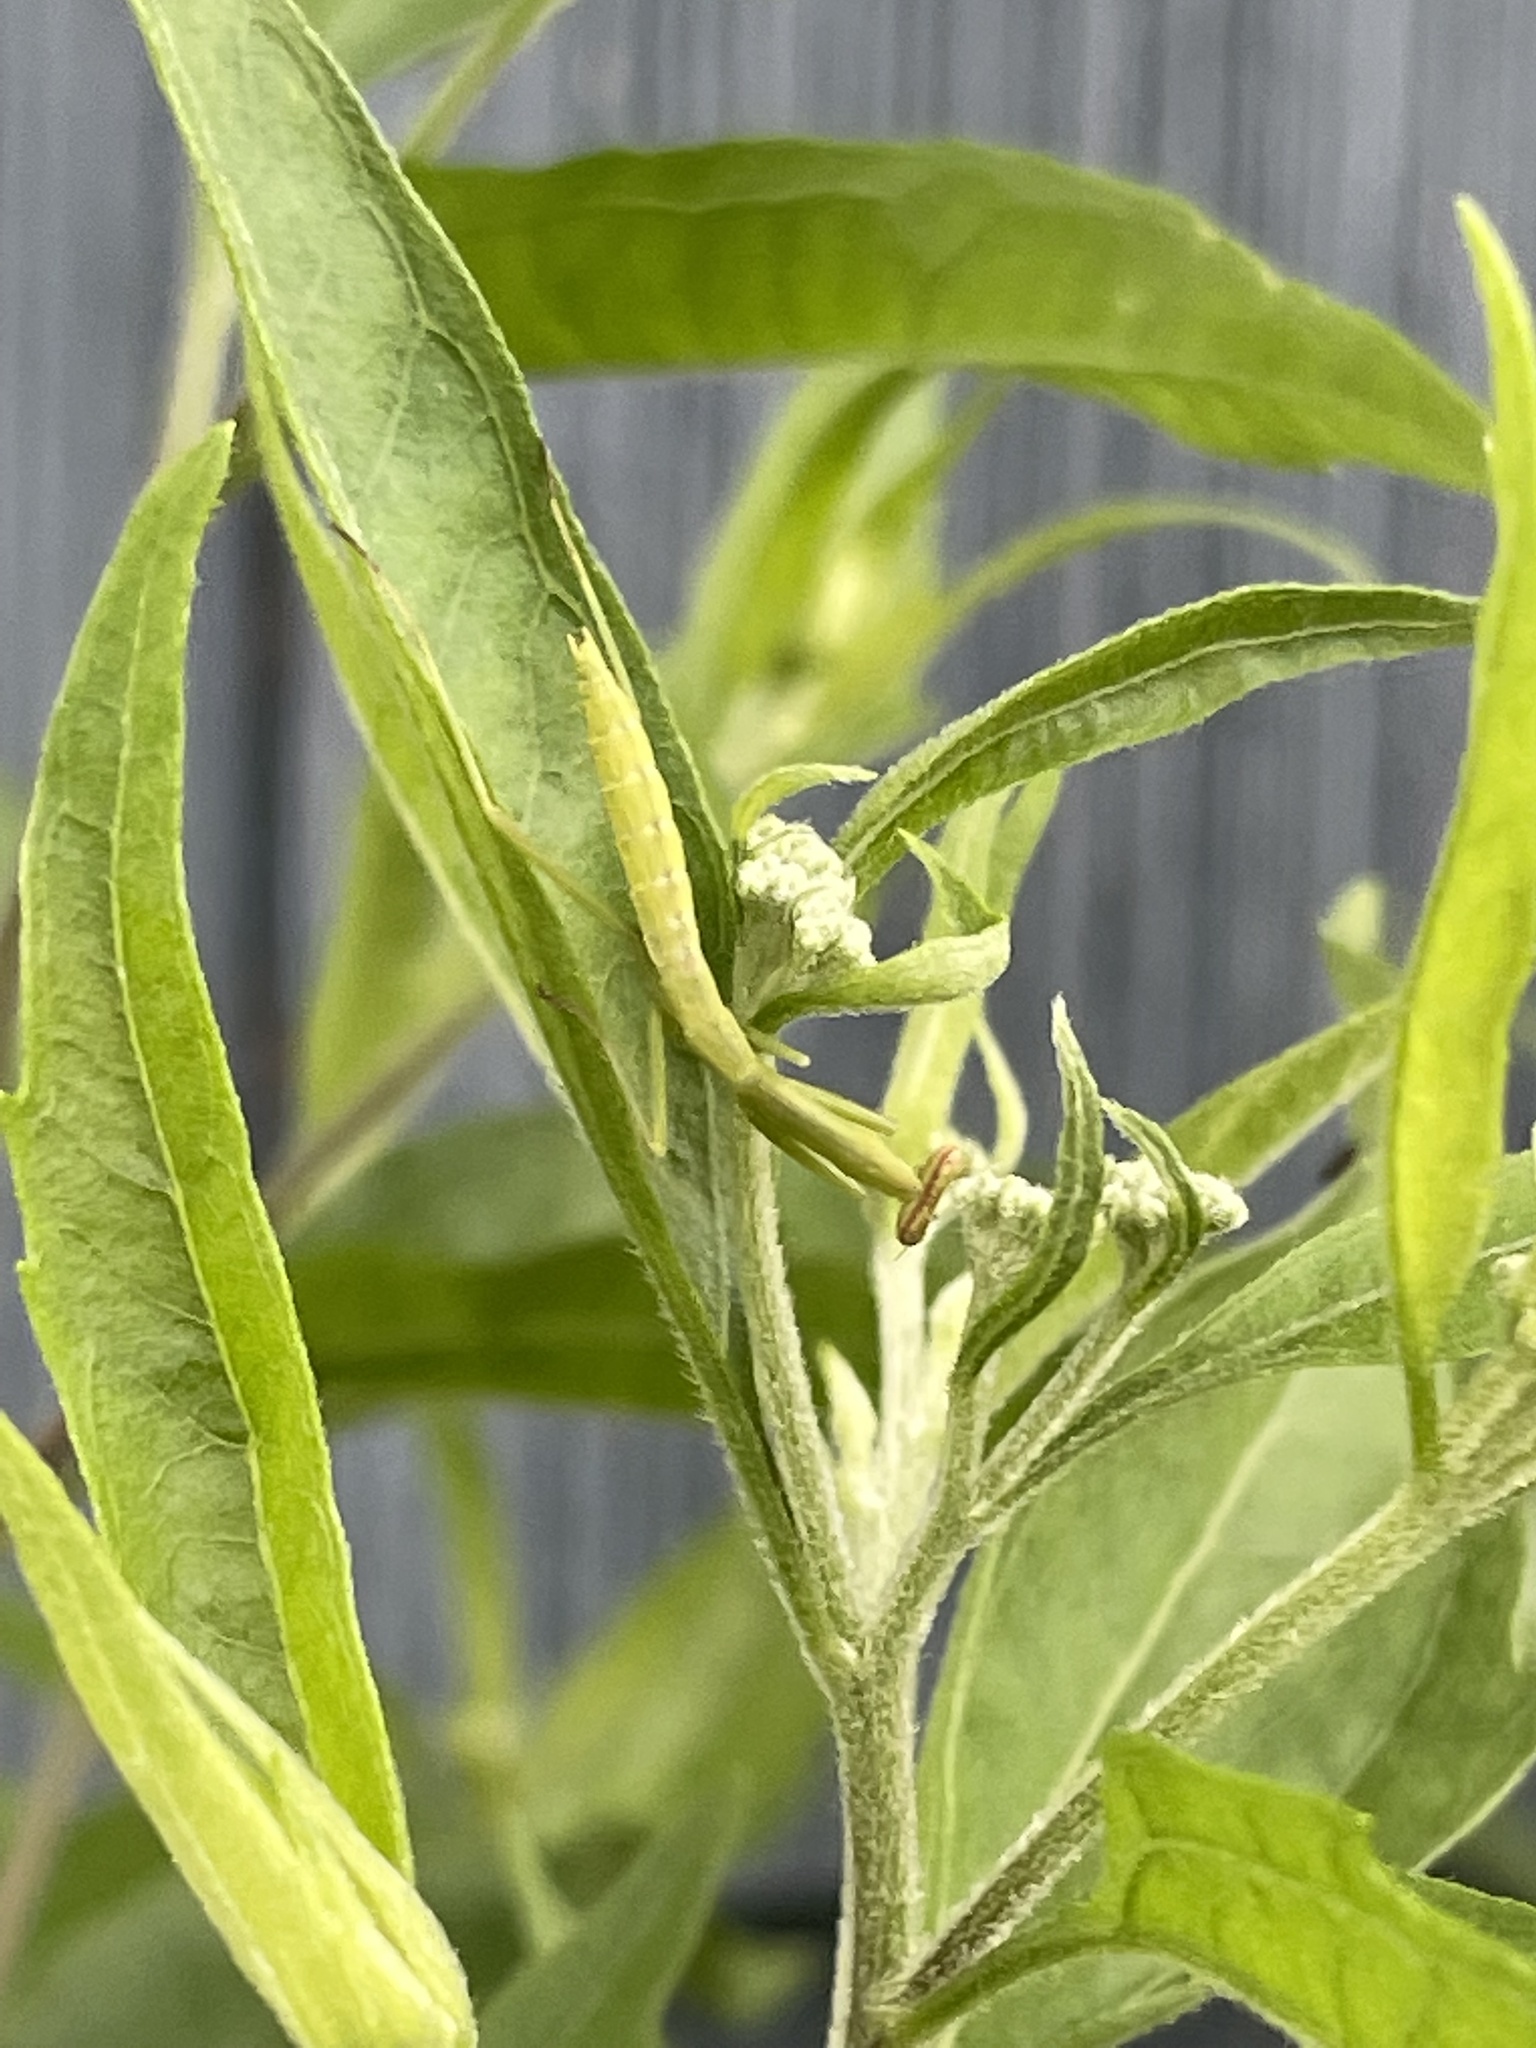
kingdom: Animalia
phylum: Arthropoda
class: Insecta
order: Mantodea
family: Mantidae
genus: Stagmomantis
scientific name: Stagmomantis carolina
